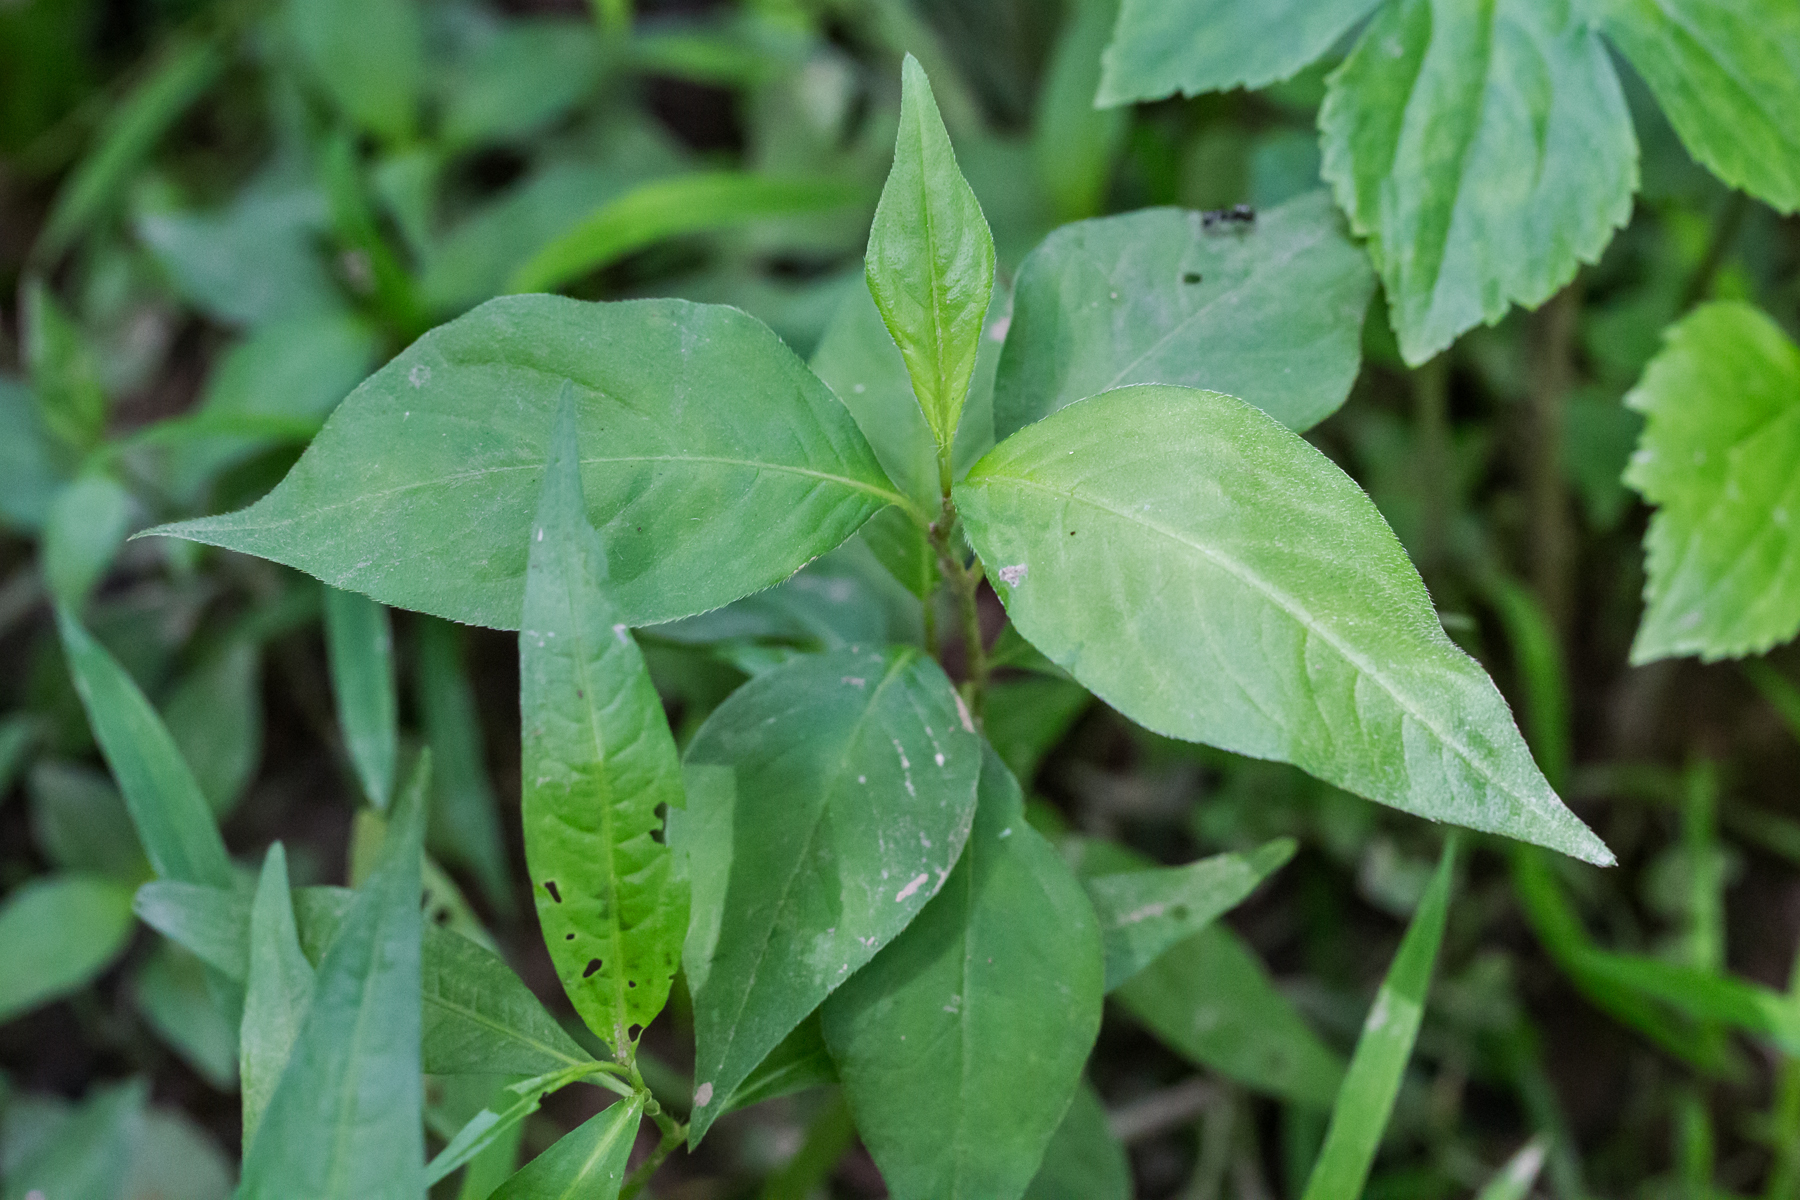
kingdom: Plantae
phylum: Tracheophyta
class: Magnoliopsida
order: Caryophyllales
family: Polygonaceae
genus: Persicaria
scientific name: Persicaria virginiana
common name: Jumpseed
